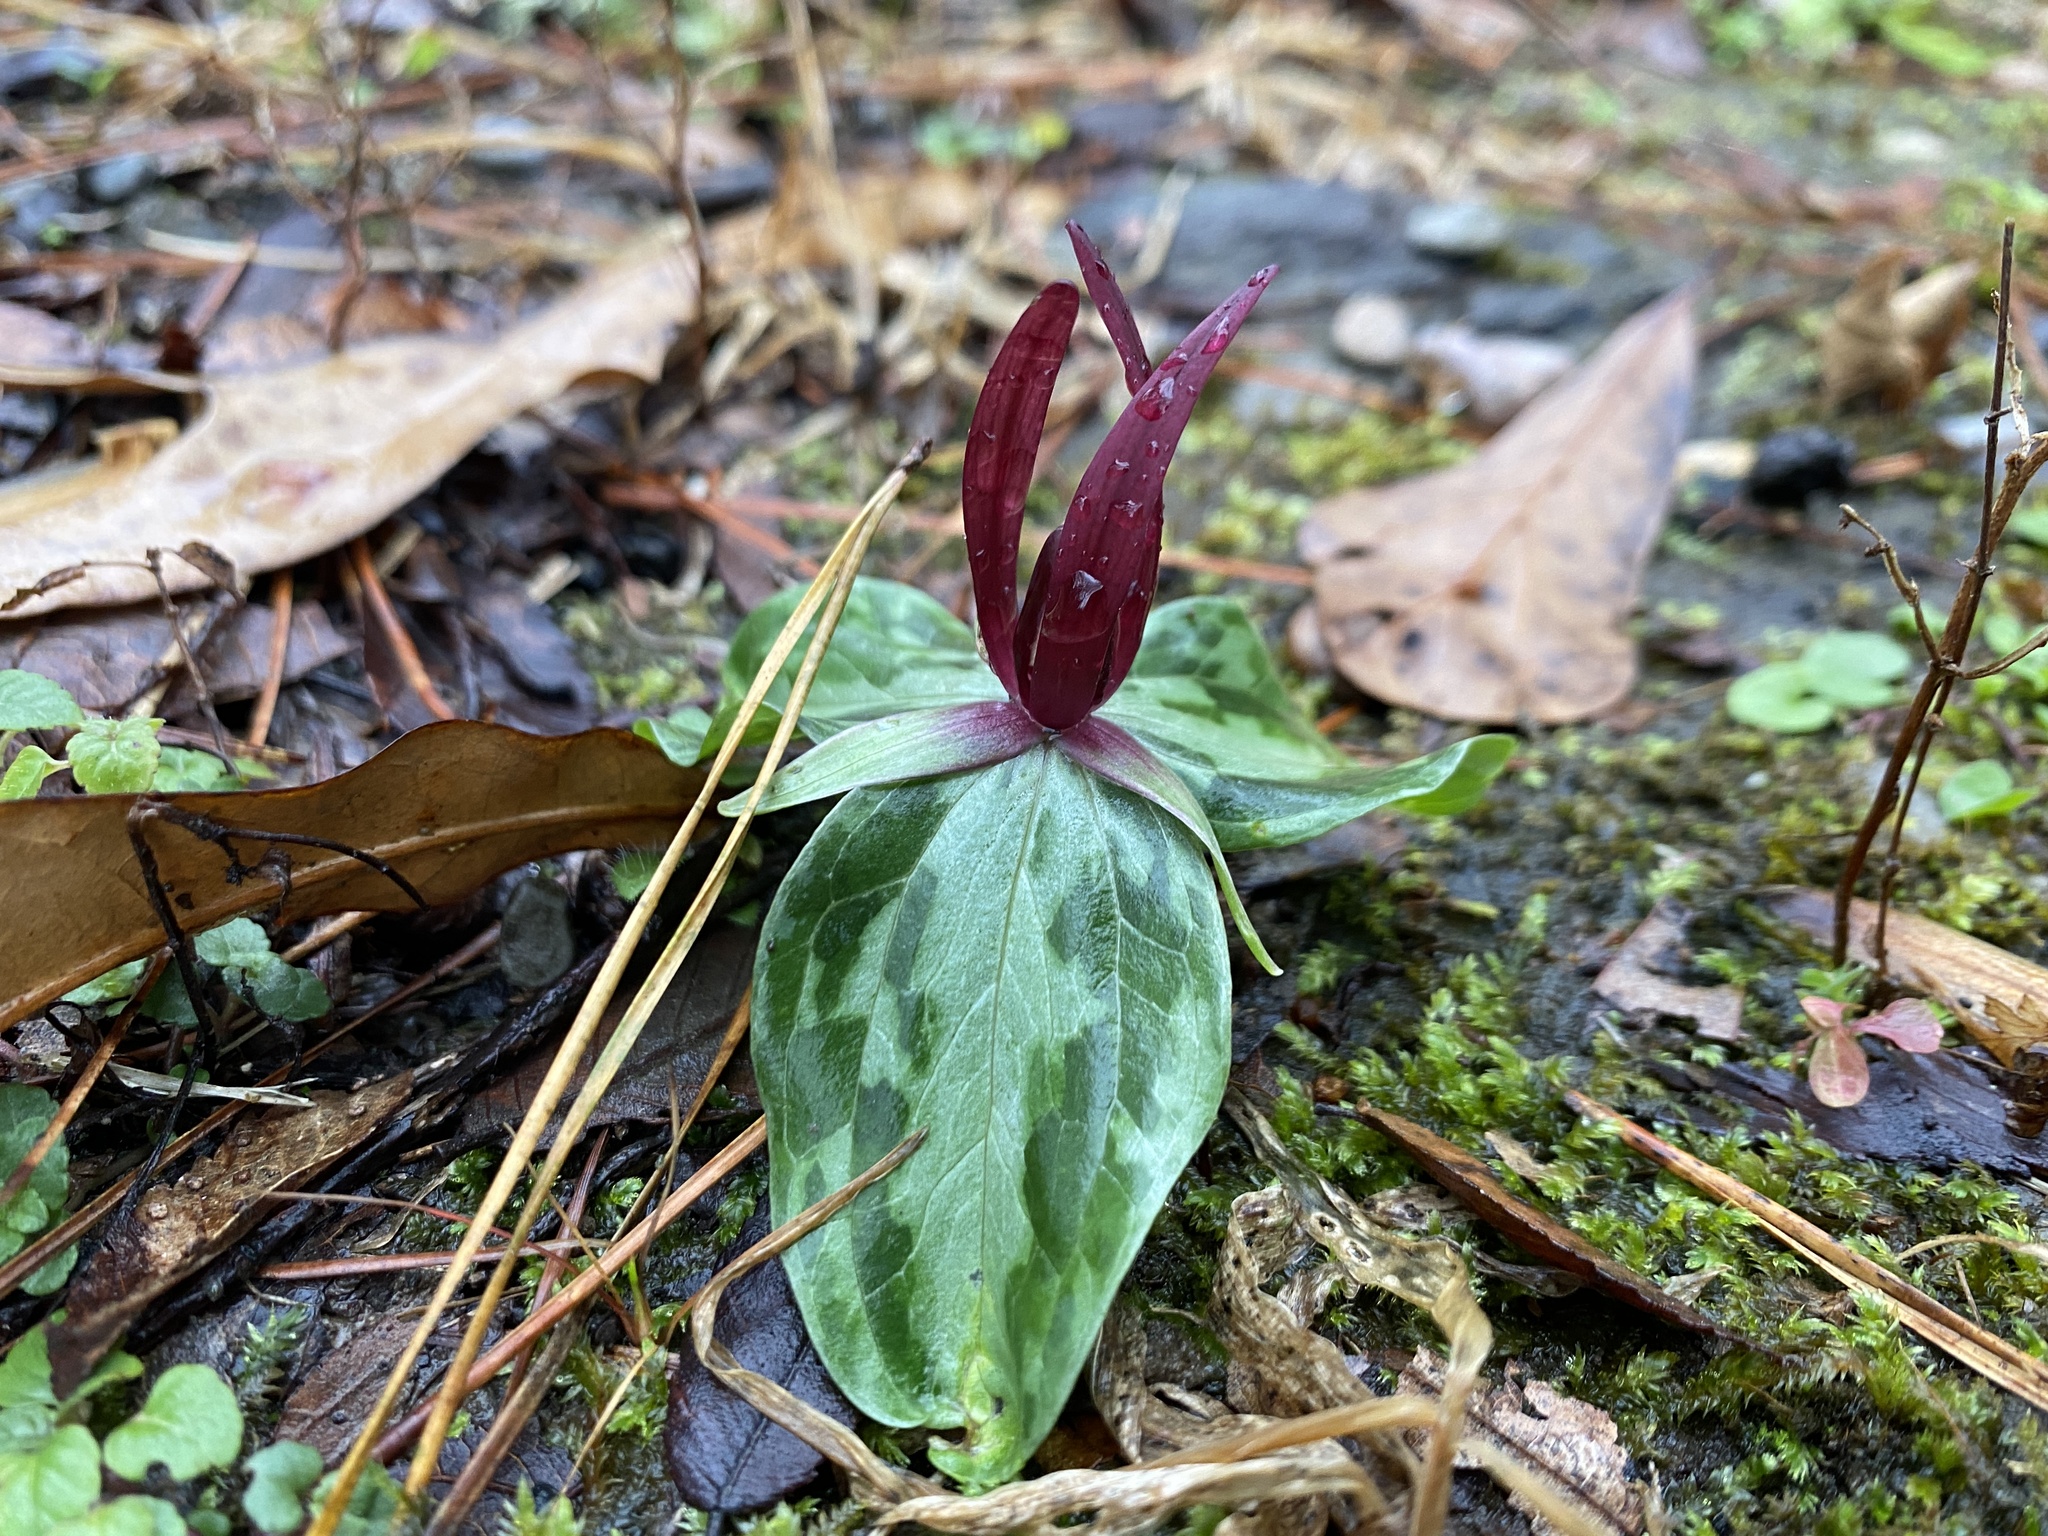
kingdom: Plantae
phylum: Tracheophyta
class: Liliopsida
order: Liliales
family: Melanthiaceae
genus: Trillium
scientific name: Trillium foetidissimum
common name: Mississippi river trillium
